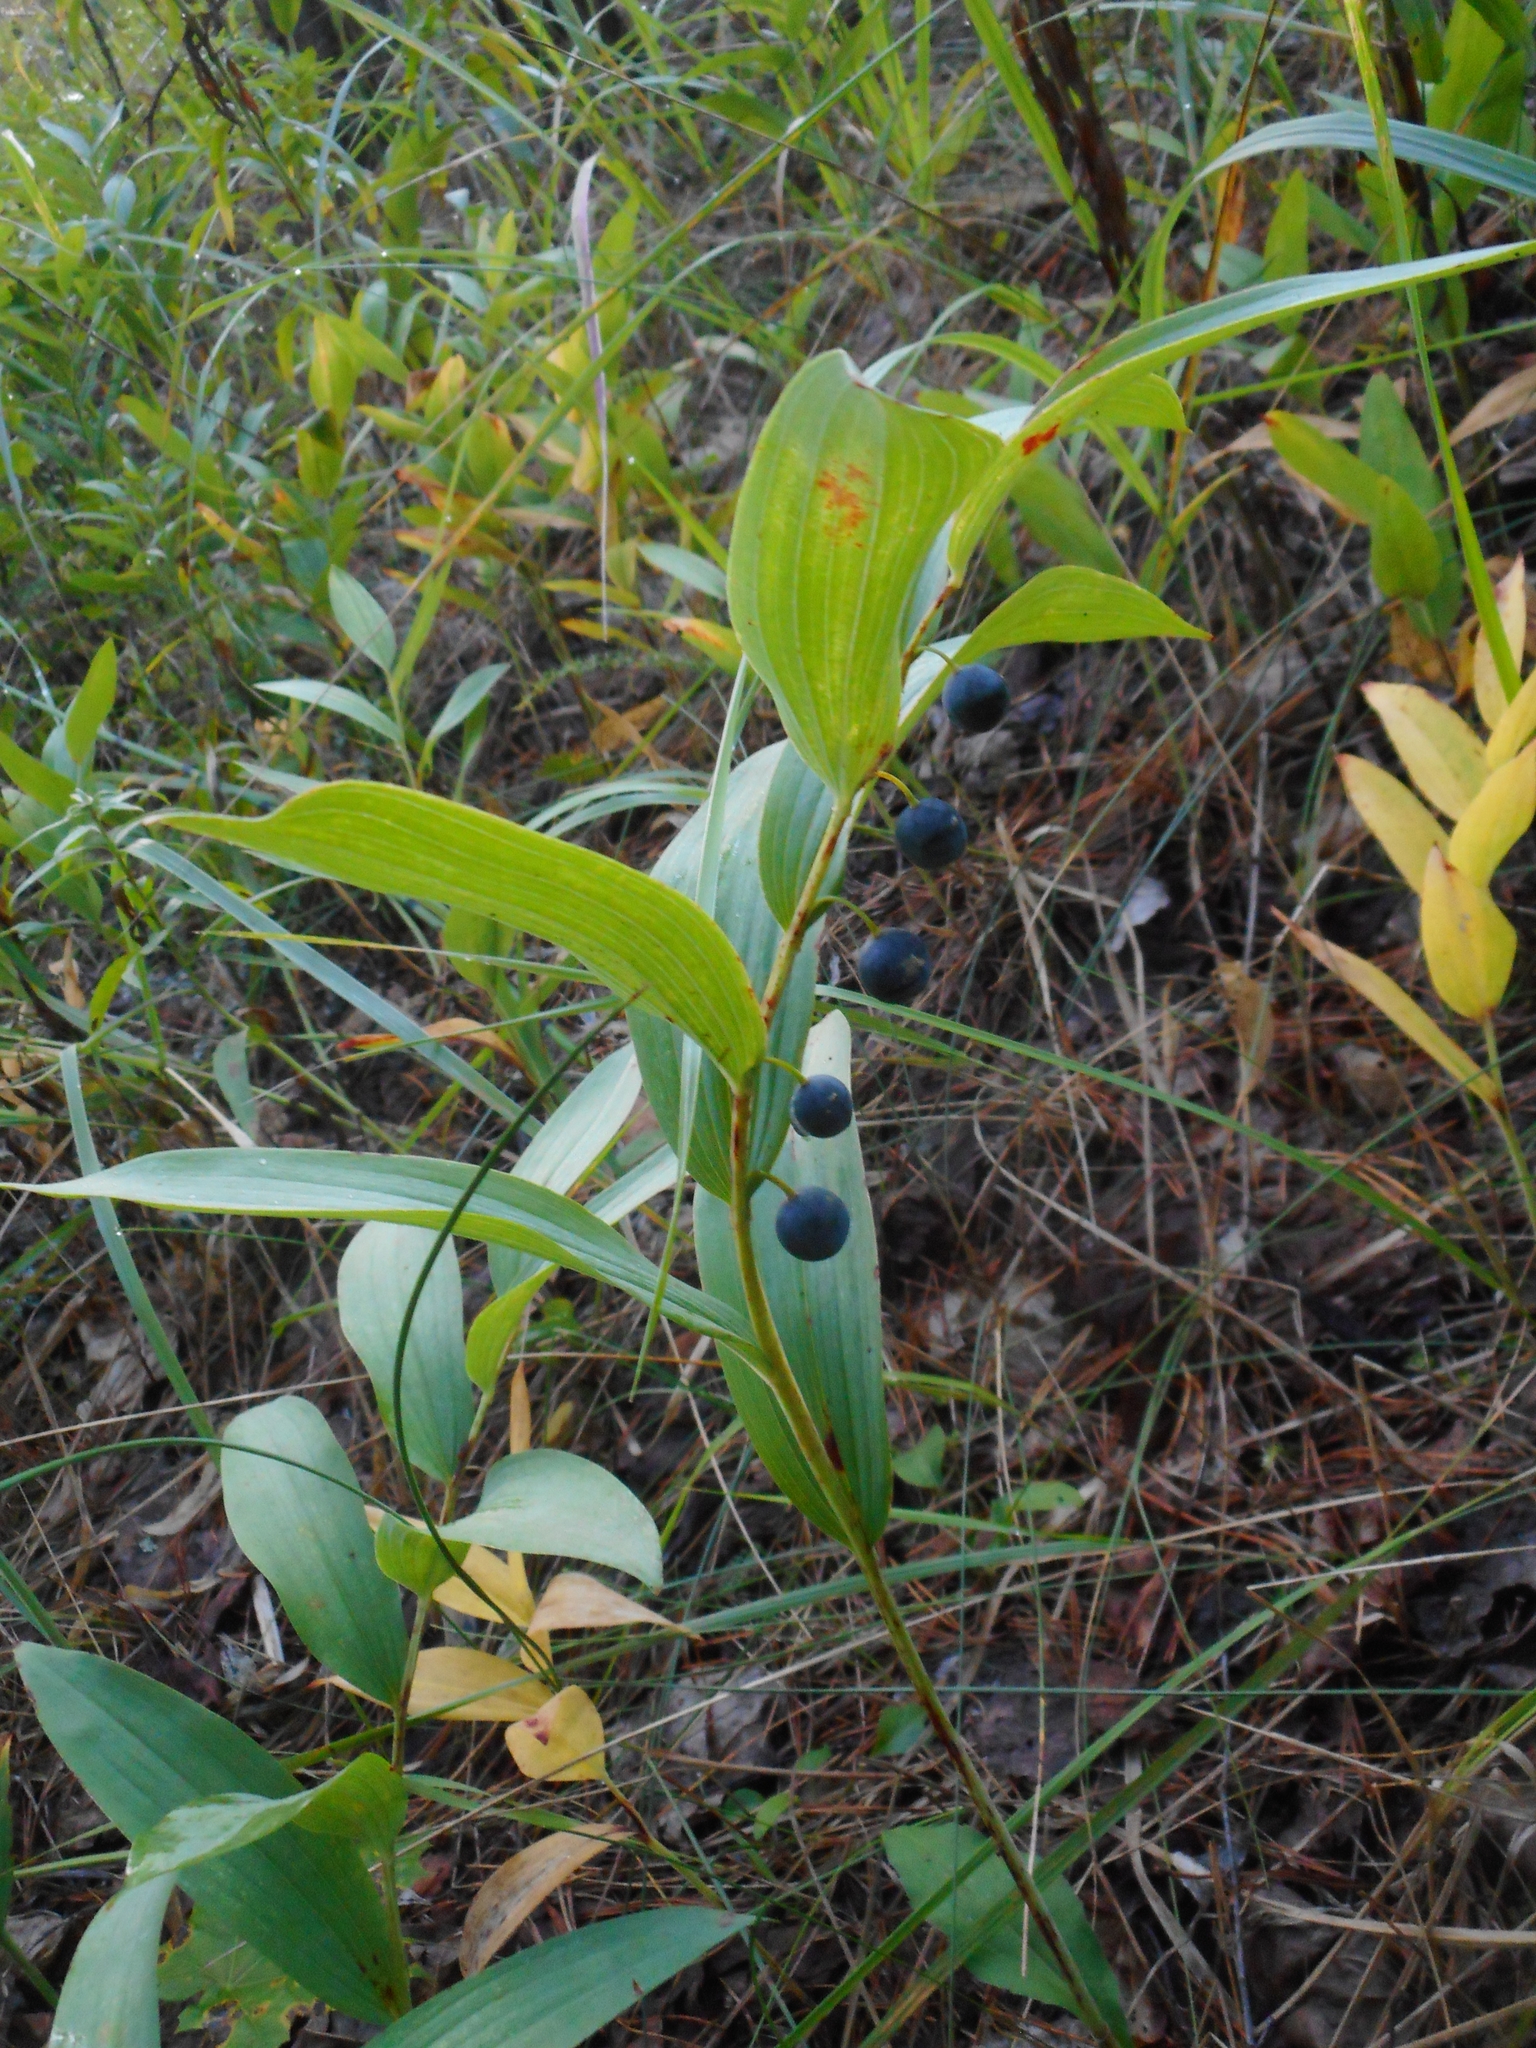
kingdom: Plantae
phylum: Tracheophyta
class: Liliopsida
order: Asparagales
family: Asparagaceae
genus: Polygonatum
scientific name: Polygonatum odoratum
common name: Angular solomon's-seal
